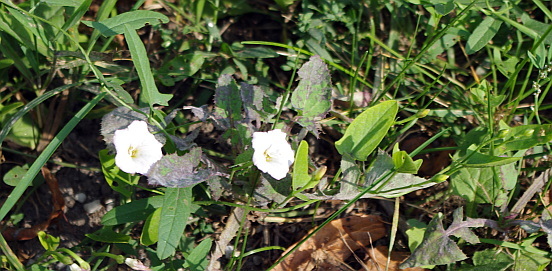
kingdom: Plantae
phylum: Tracheophyta
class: Magnoliopsida
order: Solanales
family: Convolvulaceae
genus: Convolvulus
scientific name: Convolvulus arvensis
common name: Field bindweed
